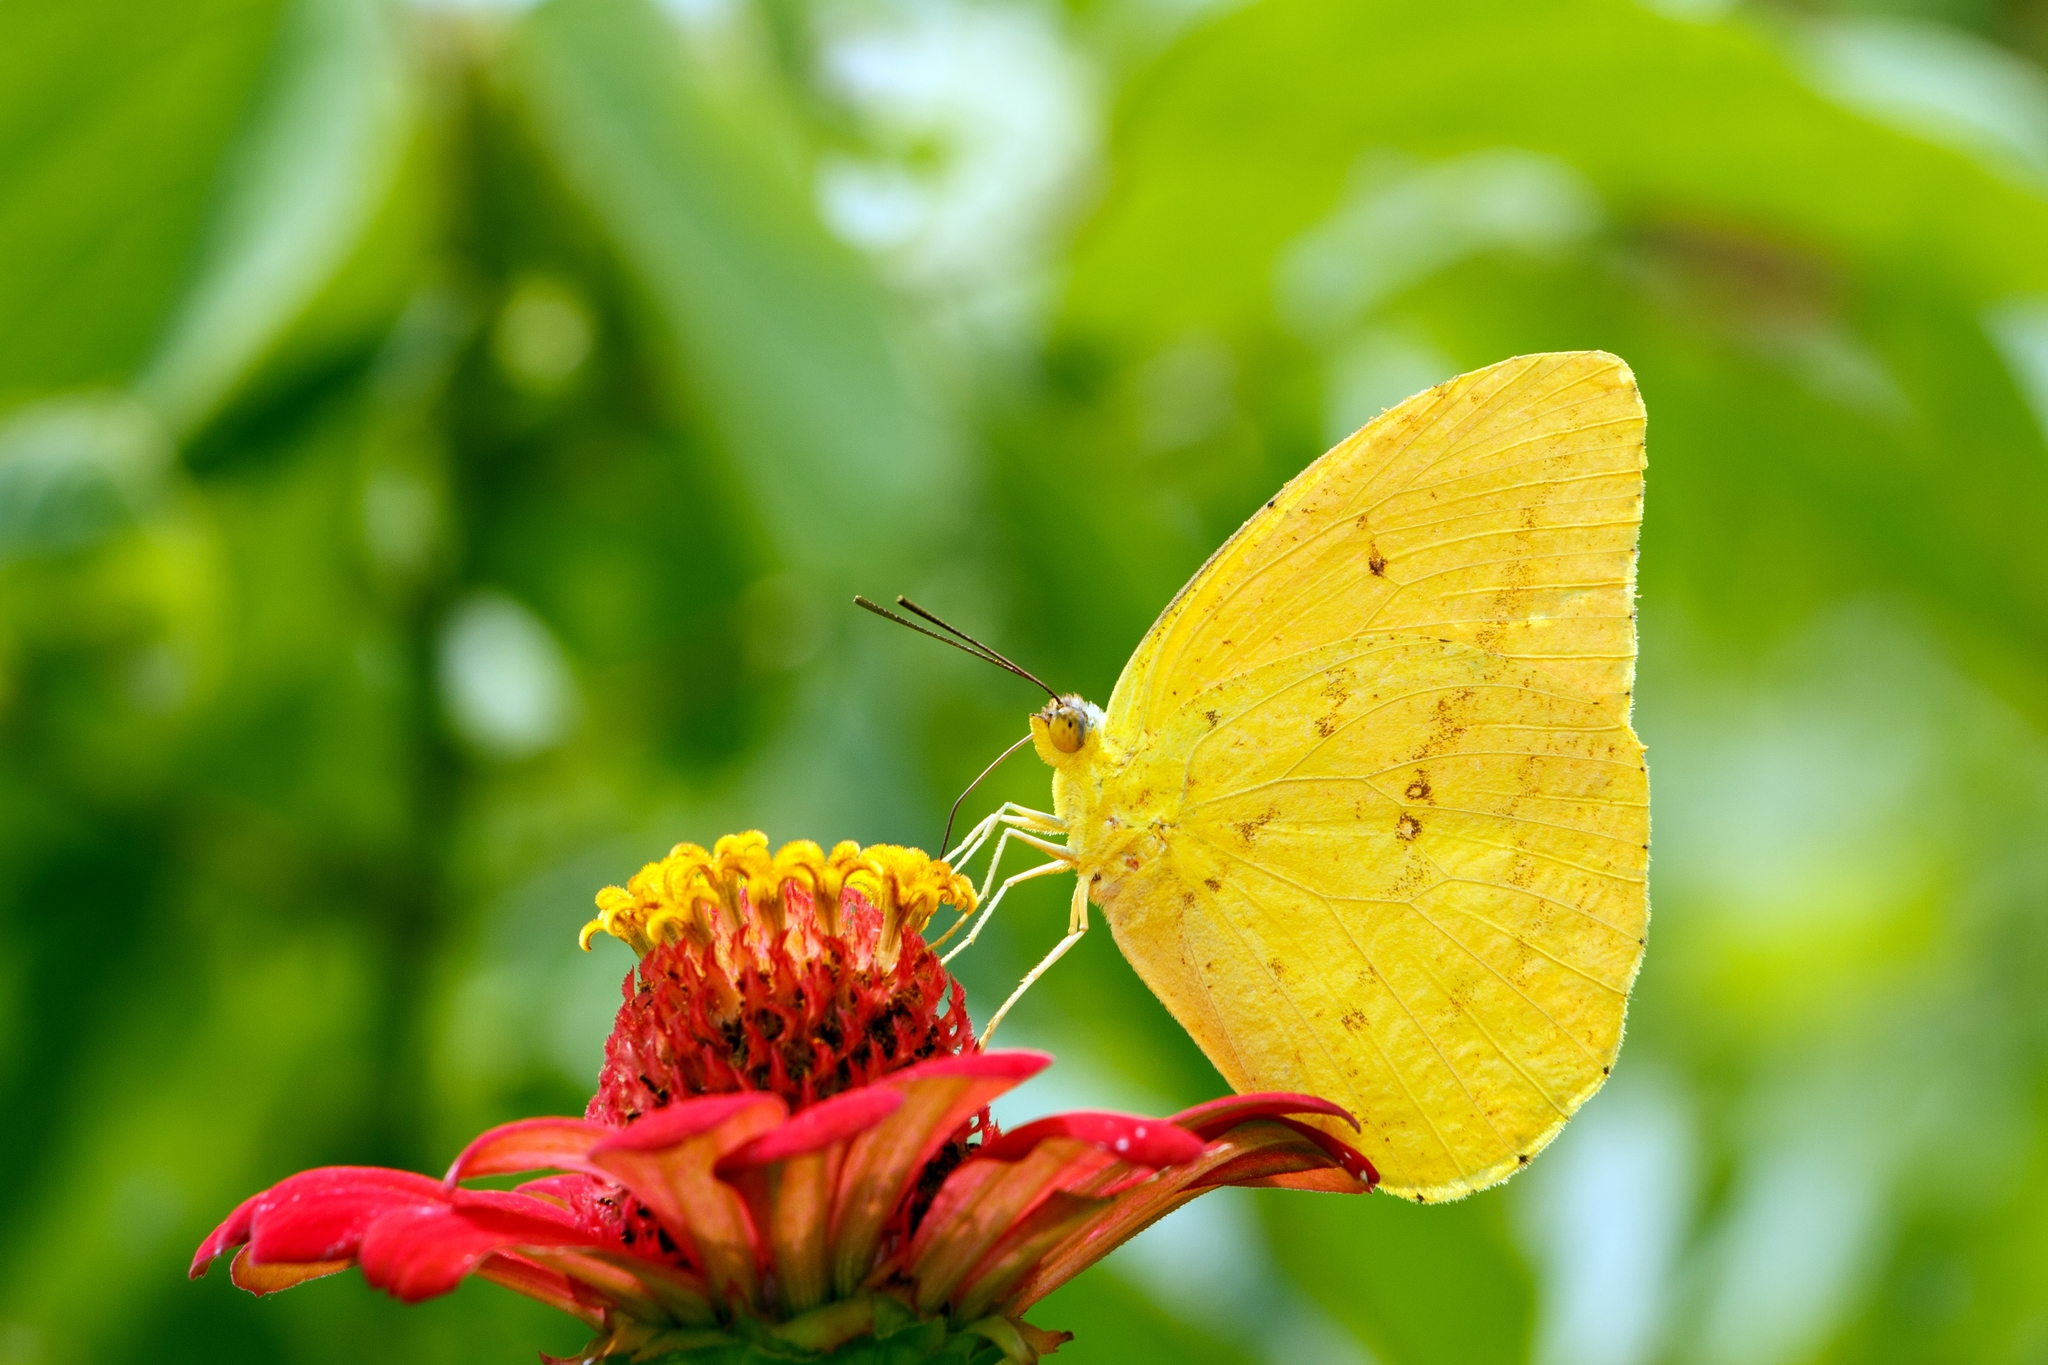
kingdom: Animalia
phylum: Arthropoda
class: Insecta
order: Lepidoptera
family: Pieridae
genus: Phoebis
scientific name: Phoebis agarithe
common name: Large orange sulphur
